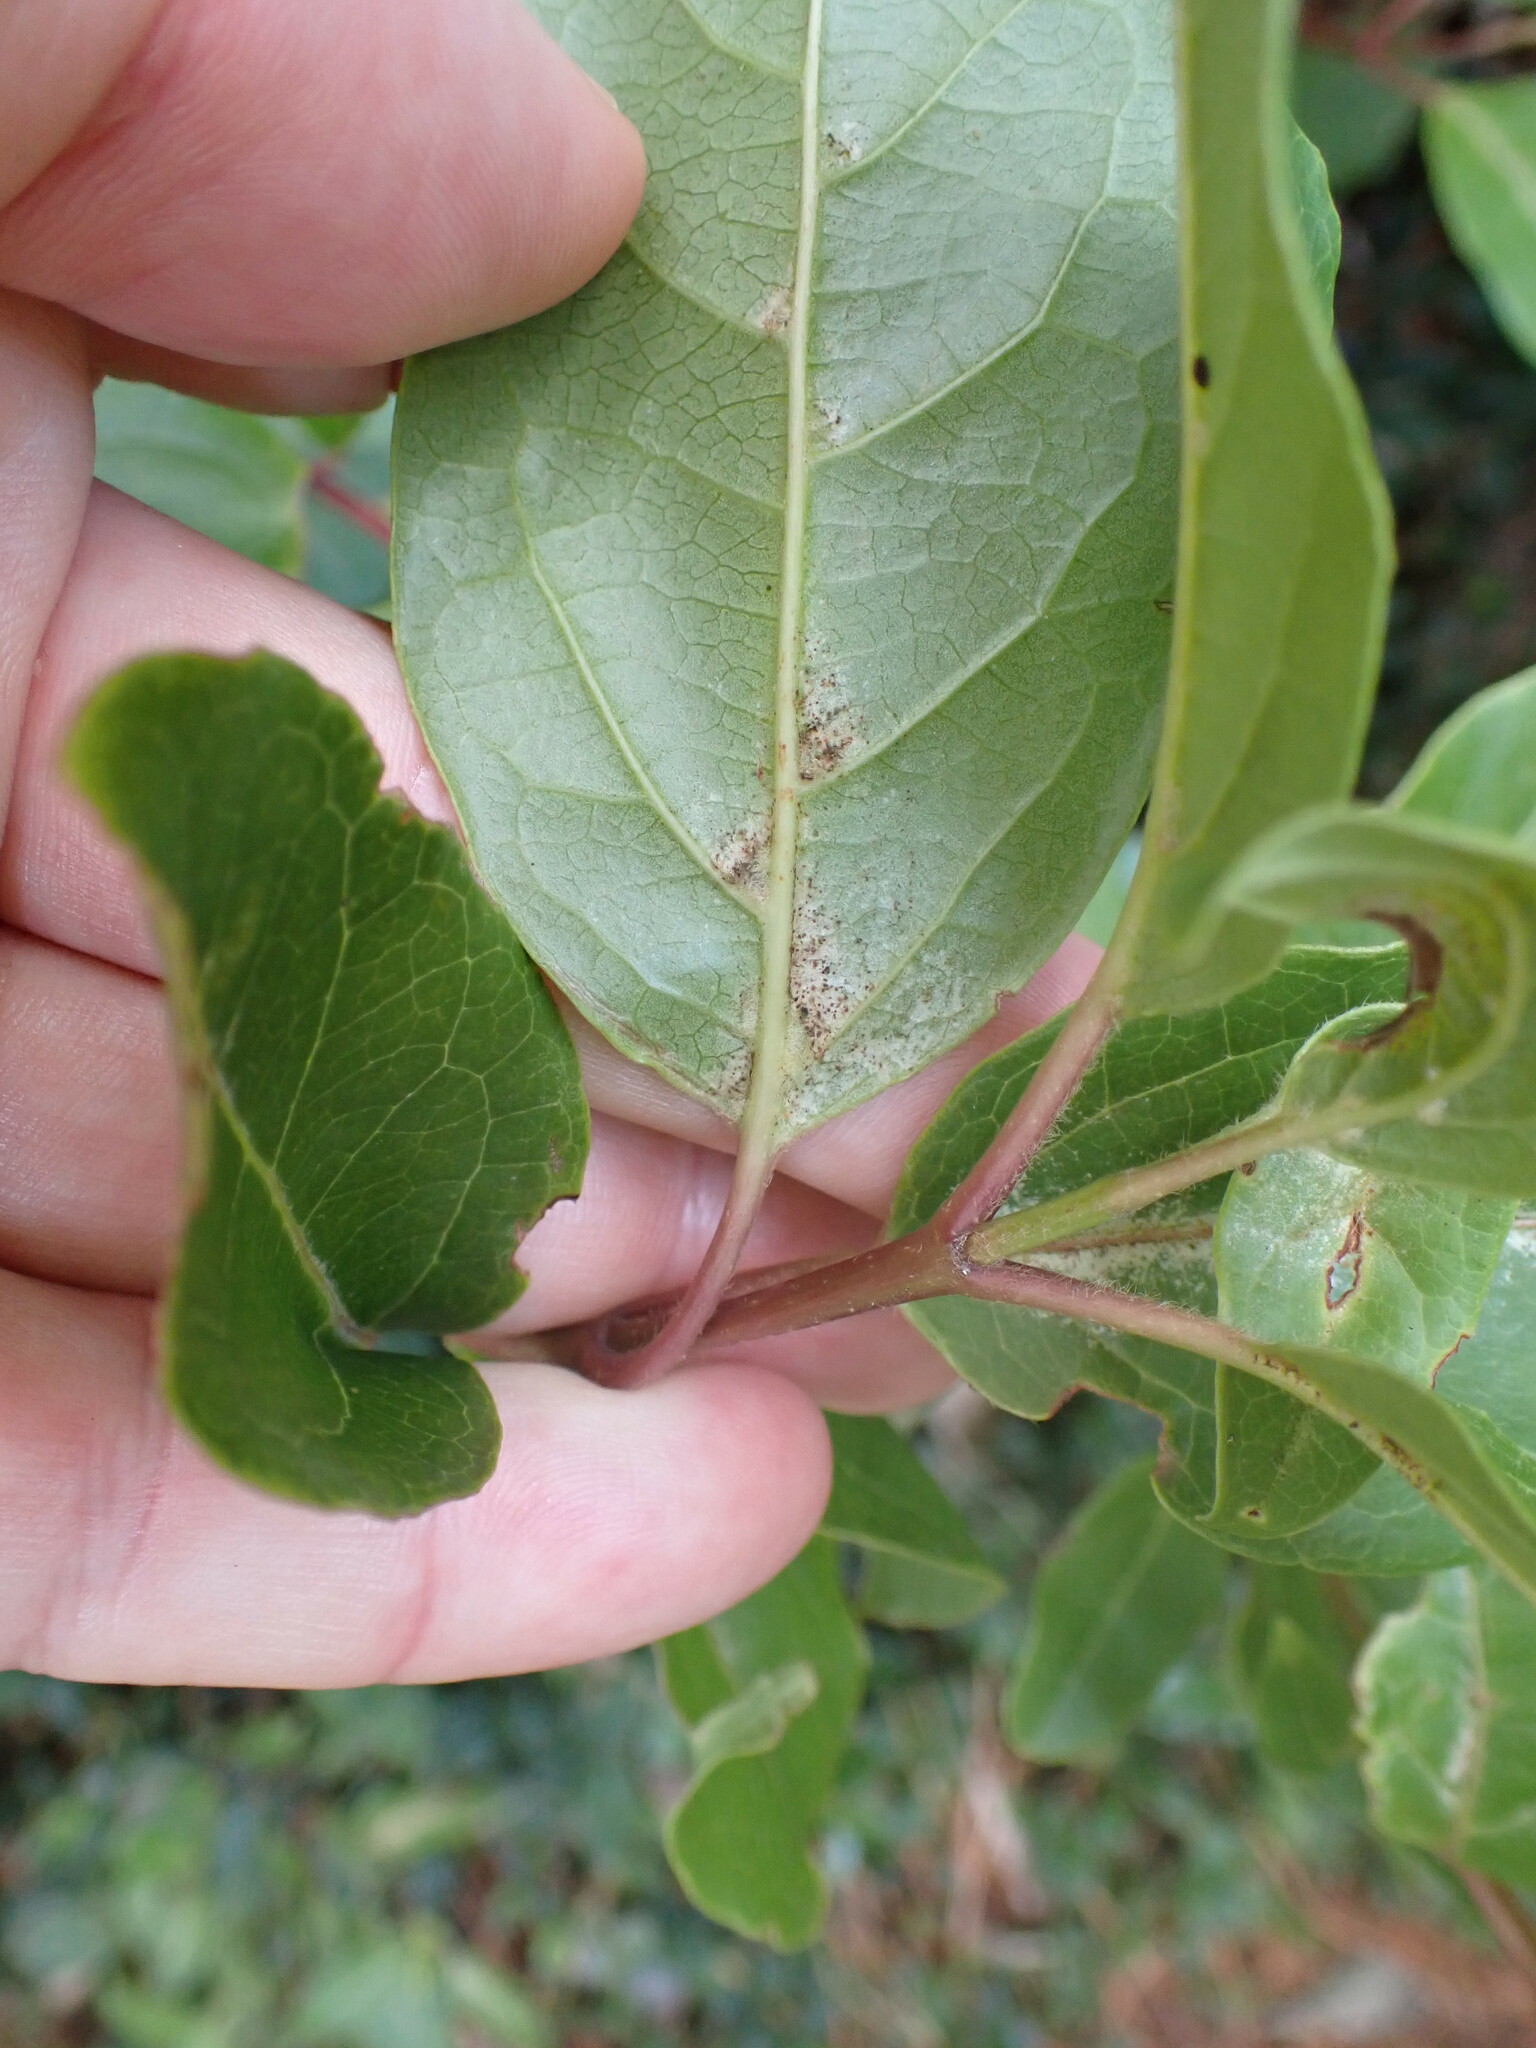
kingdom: Plantae
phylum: Tracheophyta
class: Magnoliopsida
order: Dipsacales
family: Viburnaceae
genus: Viburnum
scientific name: Viburnum tinus
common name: Laurustinus
